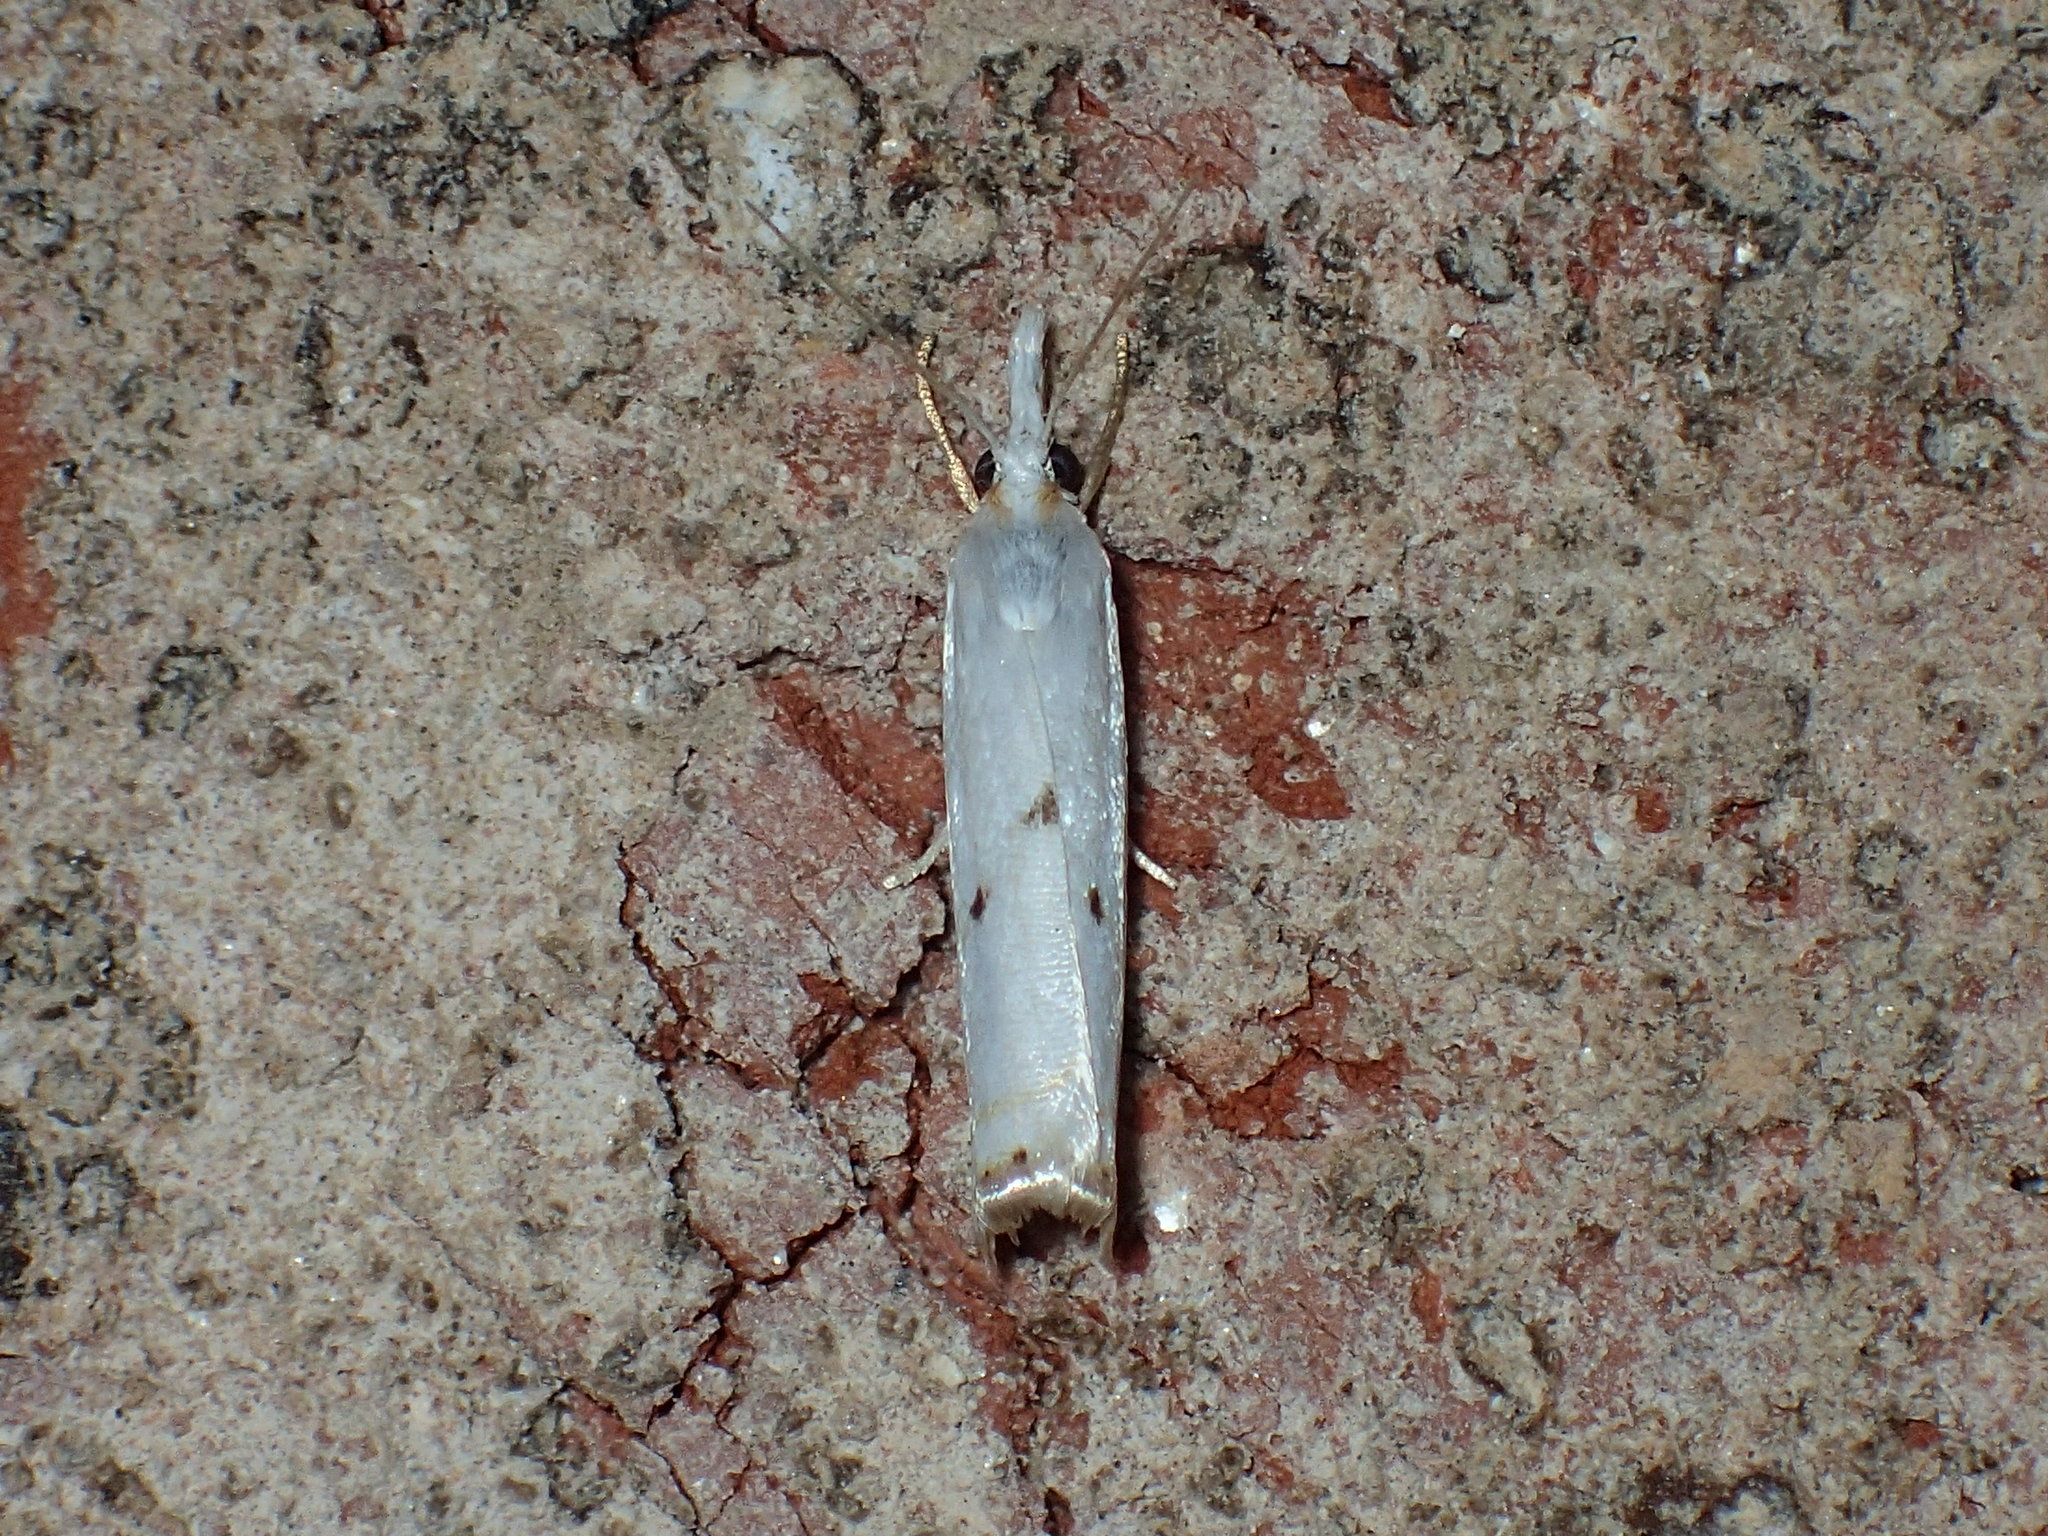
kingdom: Animalia
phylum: Arthropoda
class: Insecta
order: Lepidoptera
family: Crambidae
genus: Microcrambus
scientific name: Microcrambus biguttellus
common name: Gold-stripe grass-veneer moth
